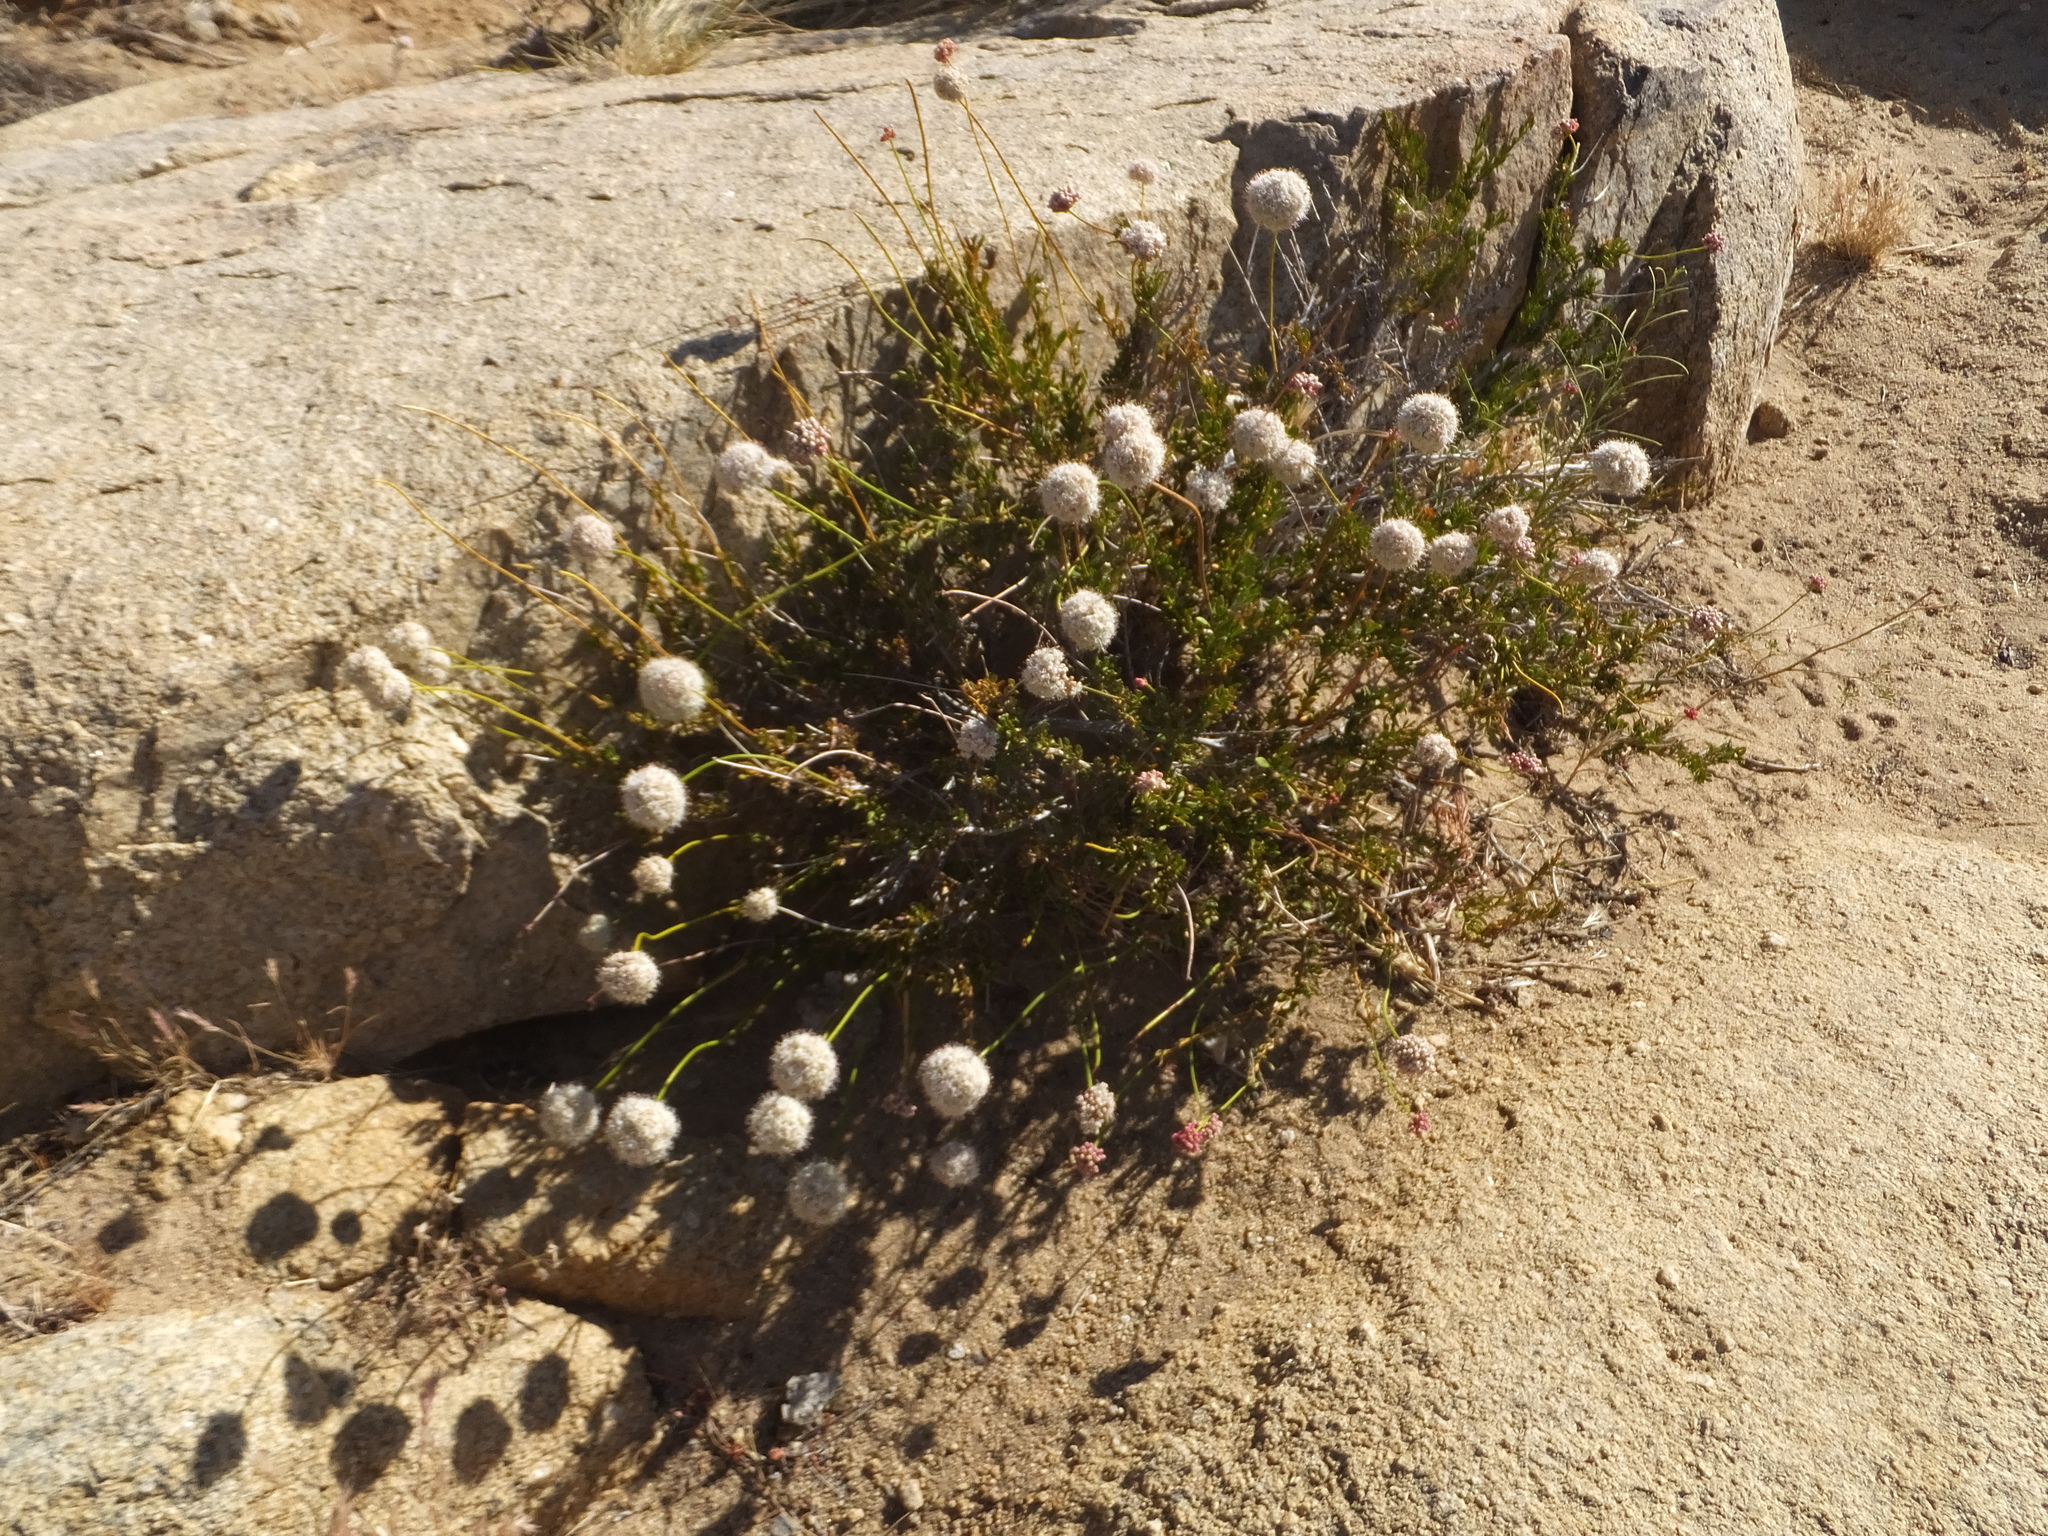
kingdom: Plantae
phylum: Tracheophyta
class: Magnoliopsida
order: Caryophyllales
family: Polygonaceae
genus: Eriogonum
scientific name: Eriogonum fasciculatum
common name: California wild buckwheat
